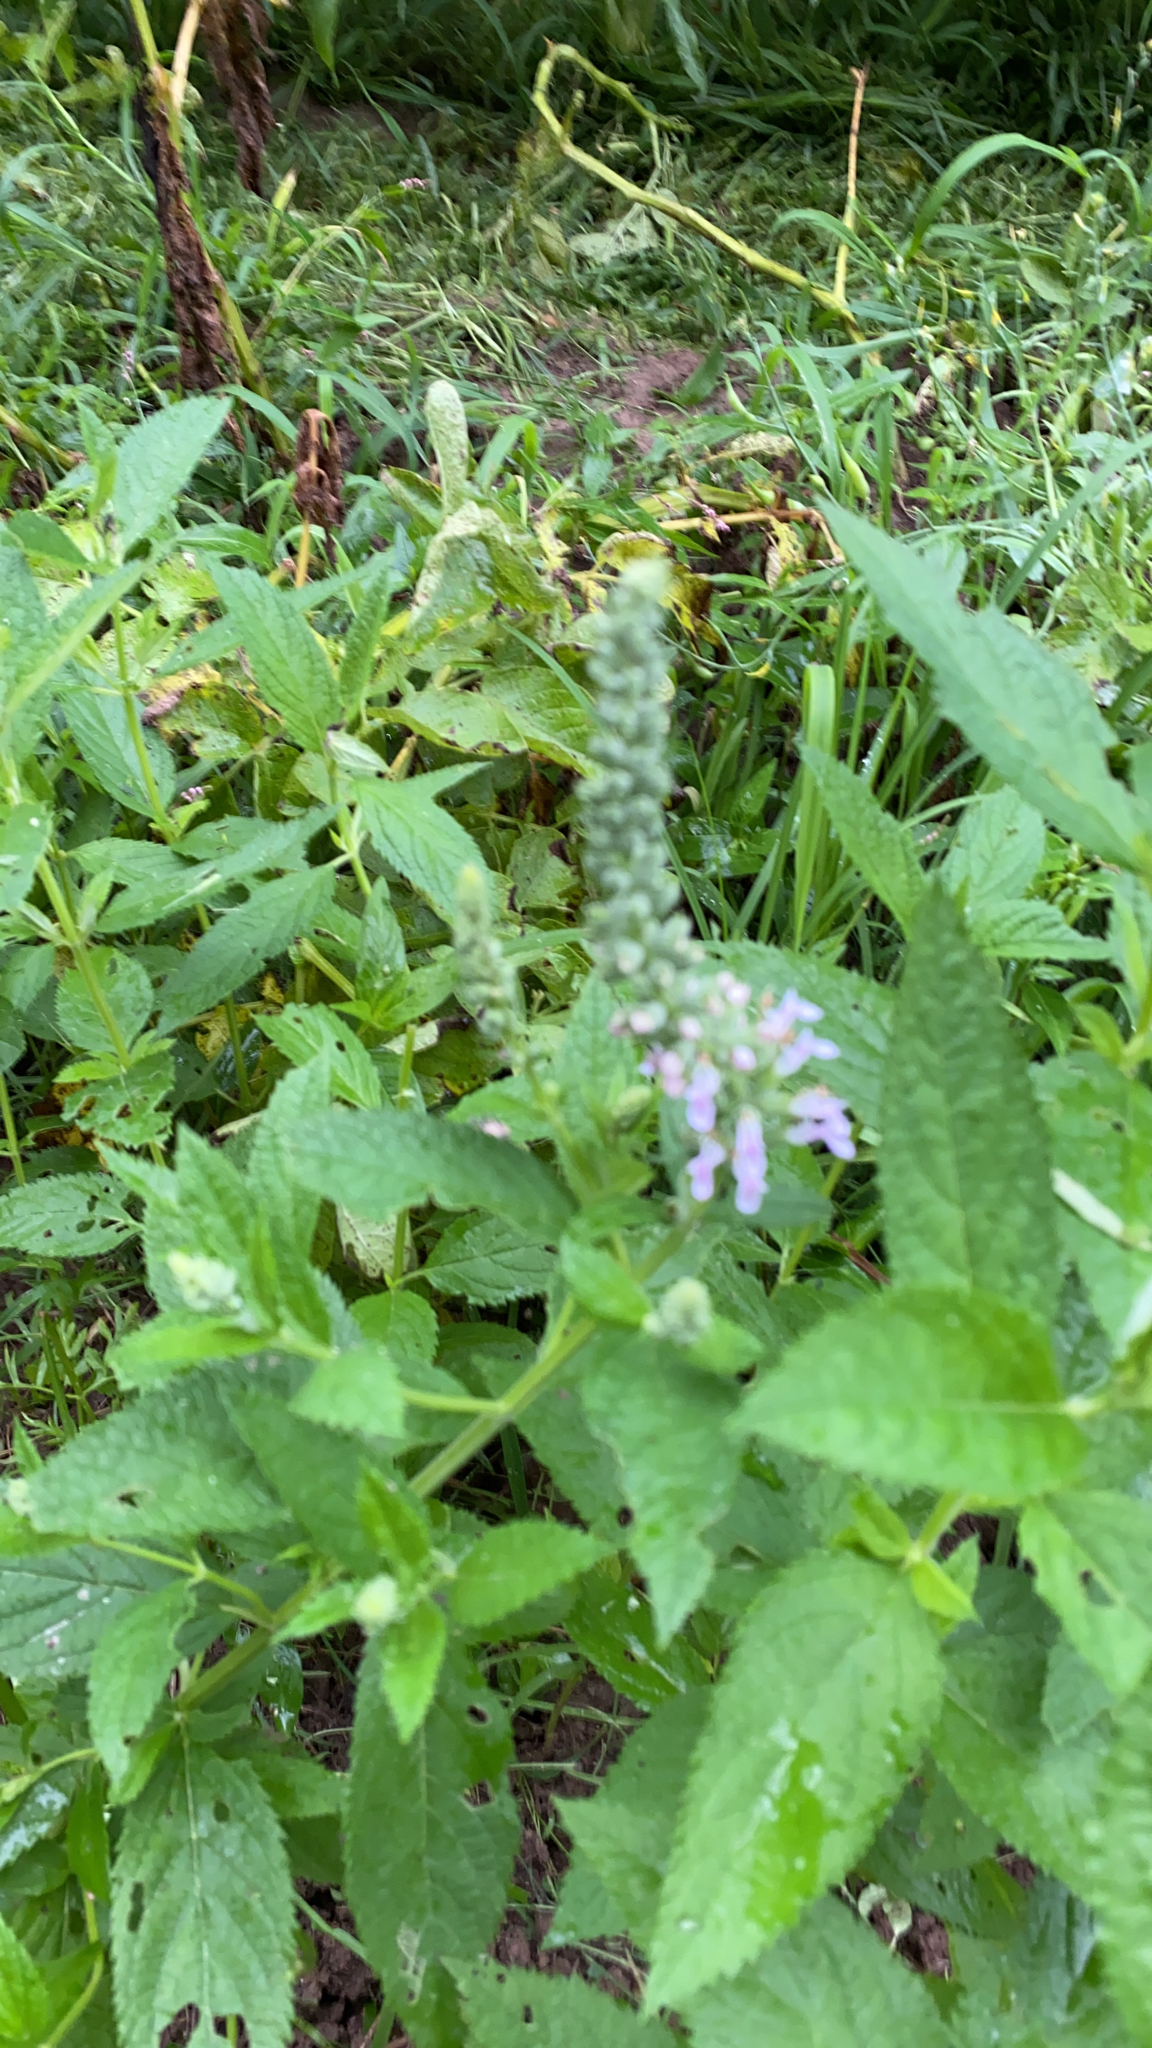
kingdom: Plantae
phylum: Tracheophyta
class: Magnoliopsida
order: Lamiales
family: Lamiaceae
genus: Teucrium
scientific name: Teucrium canadense
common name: American germander
